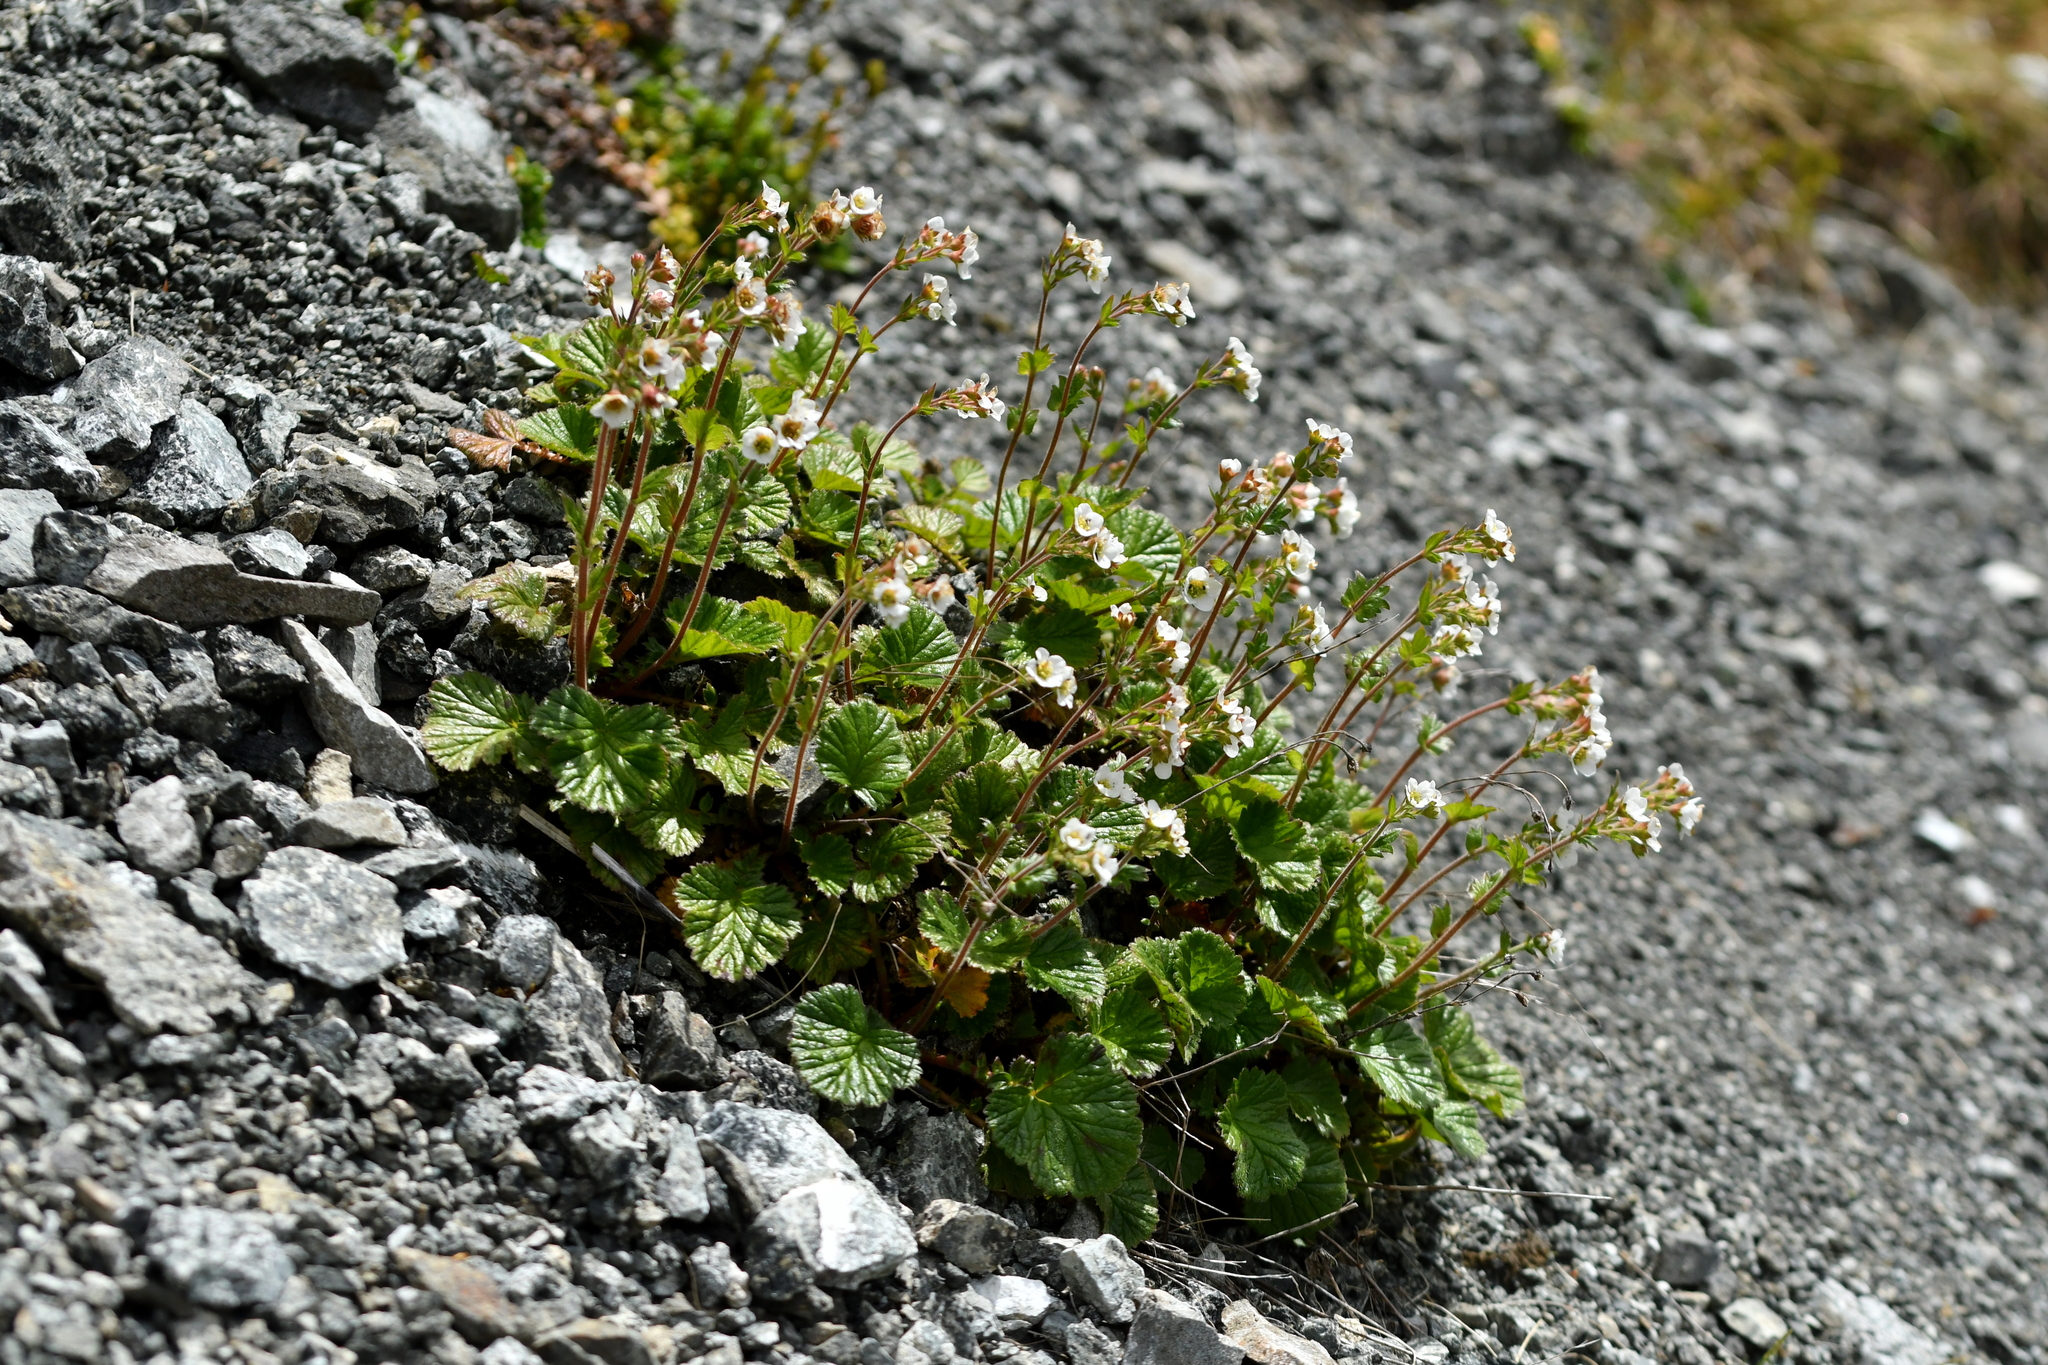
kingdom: Plantae
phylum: Tracheophyta
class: Magnoliopsida
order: Rosales
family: Rosaceae
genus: Geum
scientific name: Geum cockaynei
